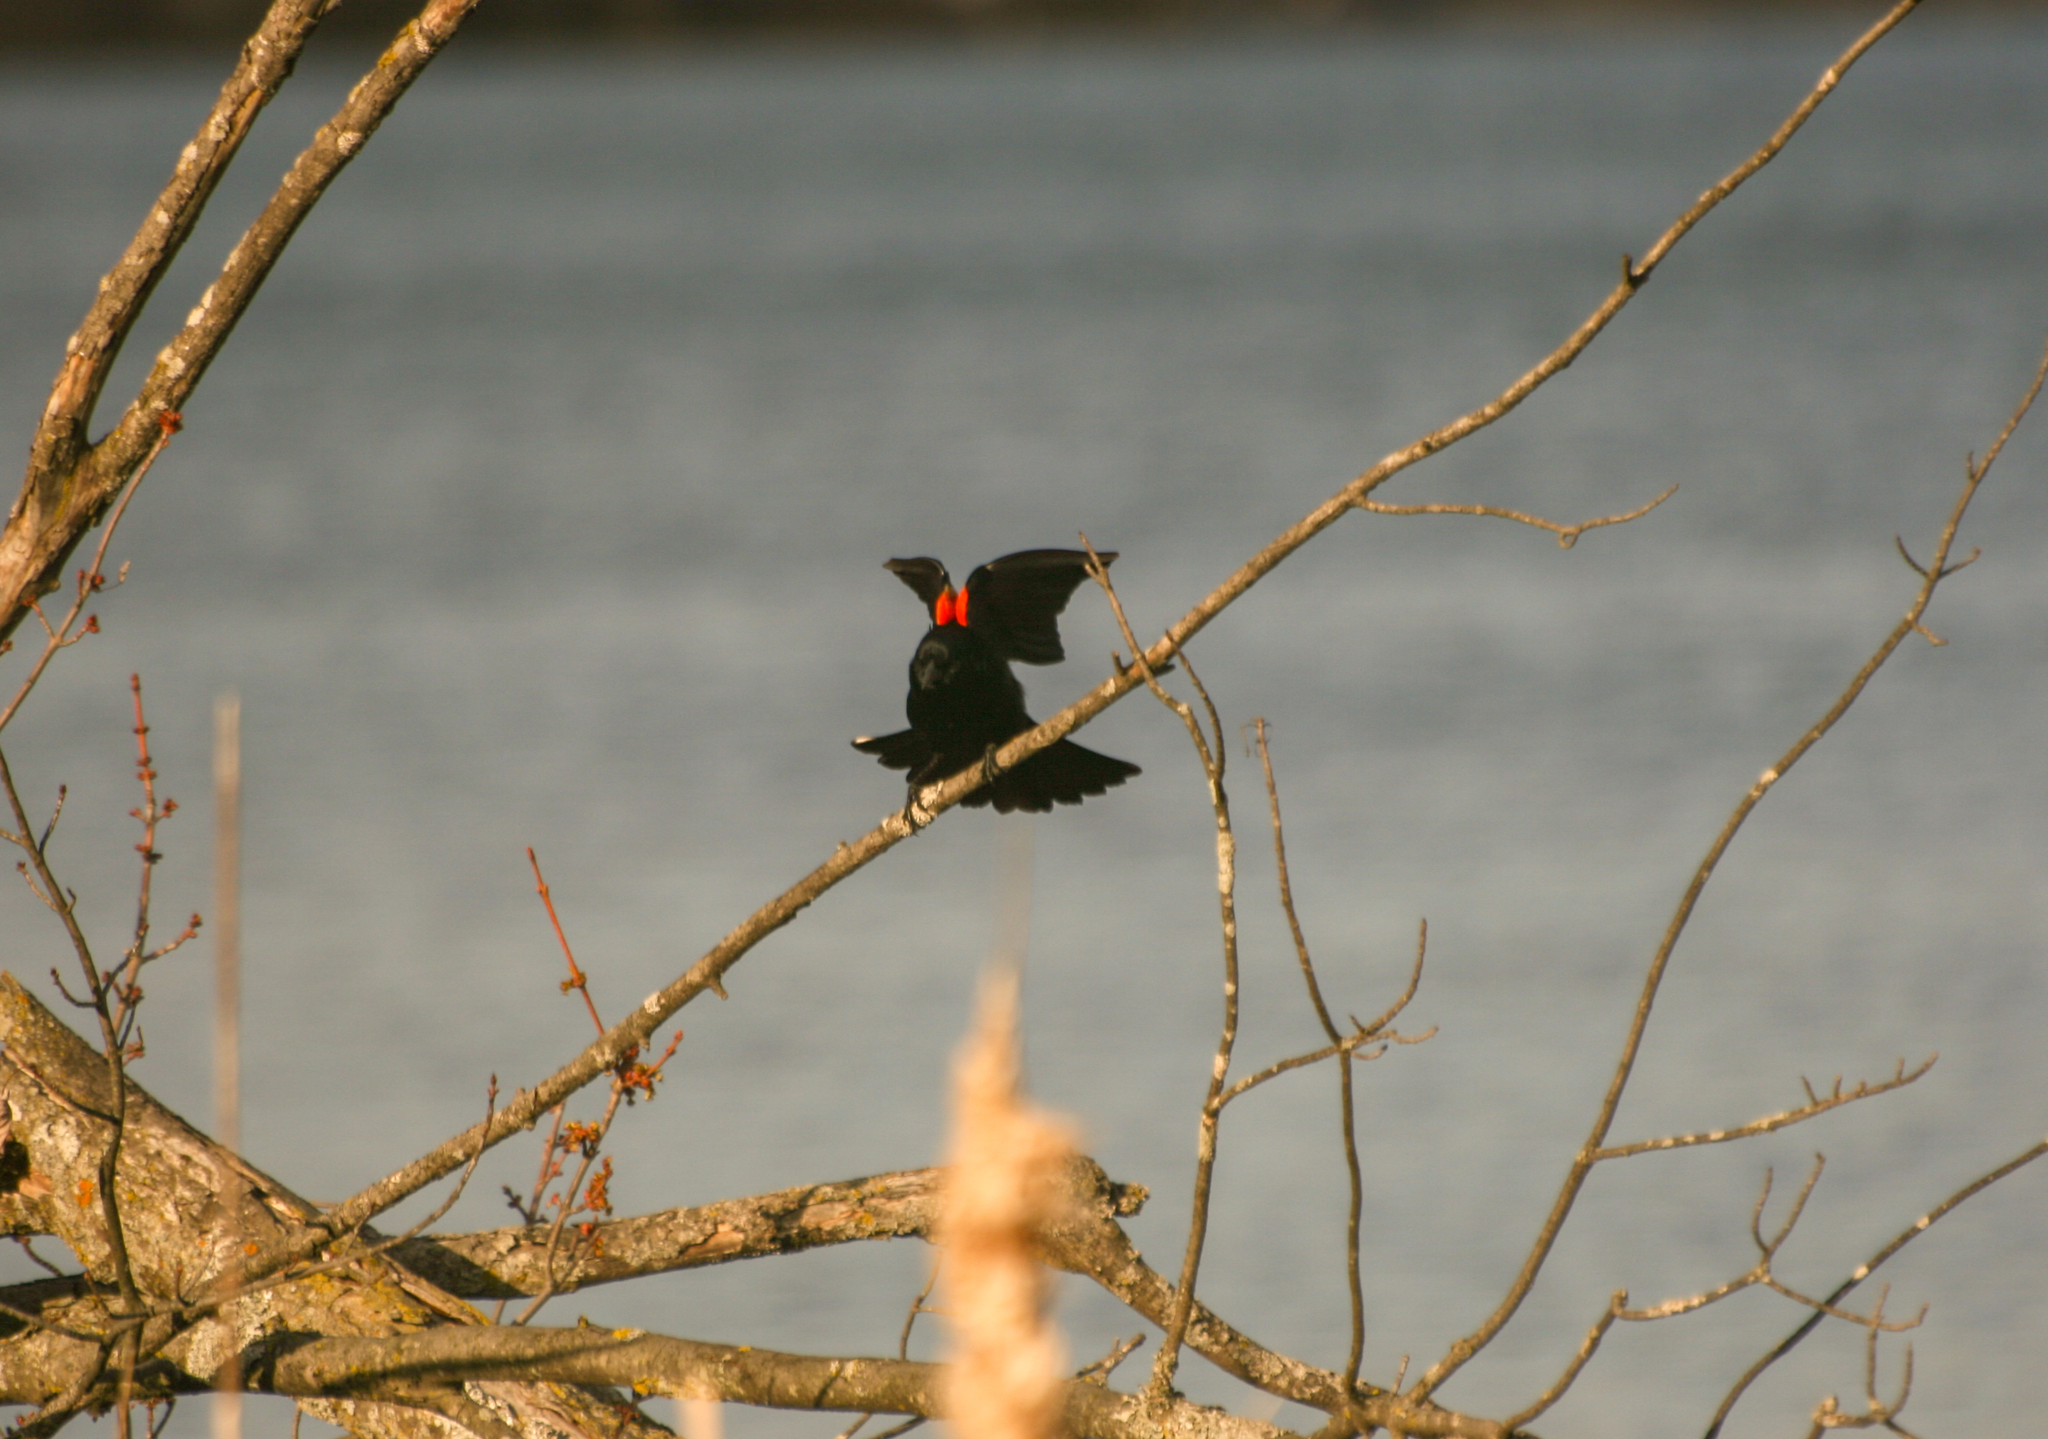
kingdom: Animalia
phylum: Chordata
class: Aves
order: Passeriformes
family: Icteridae
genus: Agelaius
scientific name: Agelaius phoeniceus
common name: Red-winged blackbird
